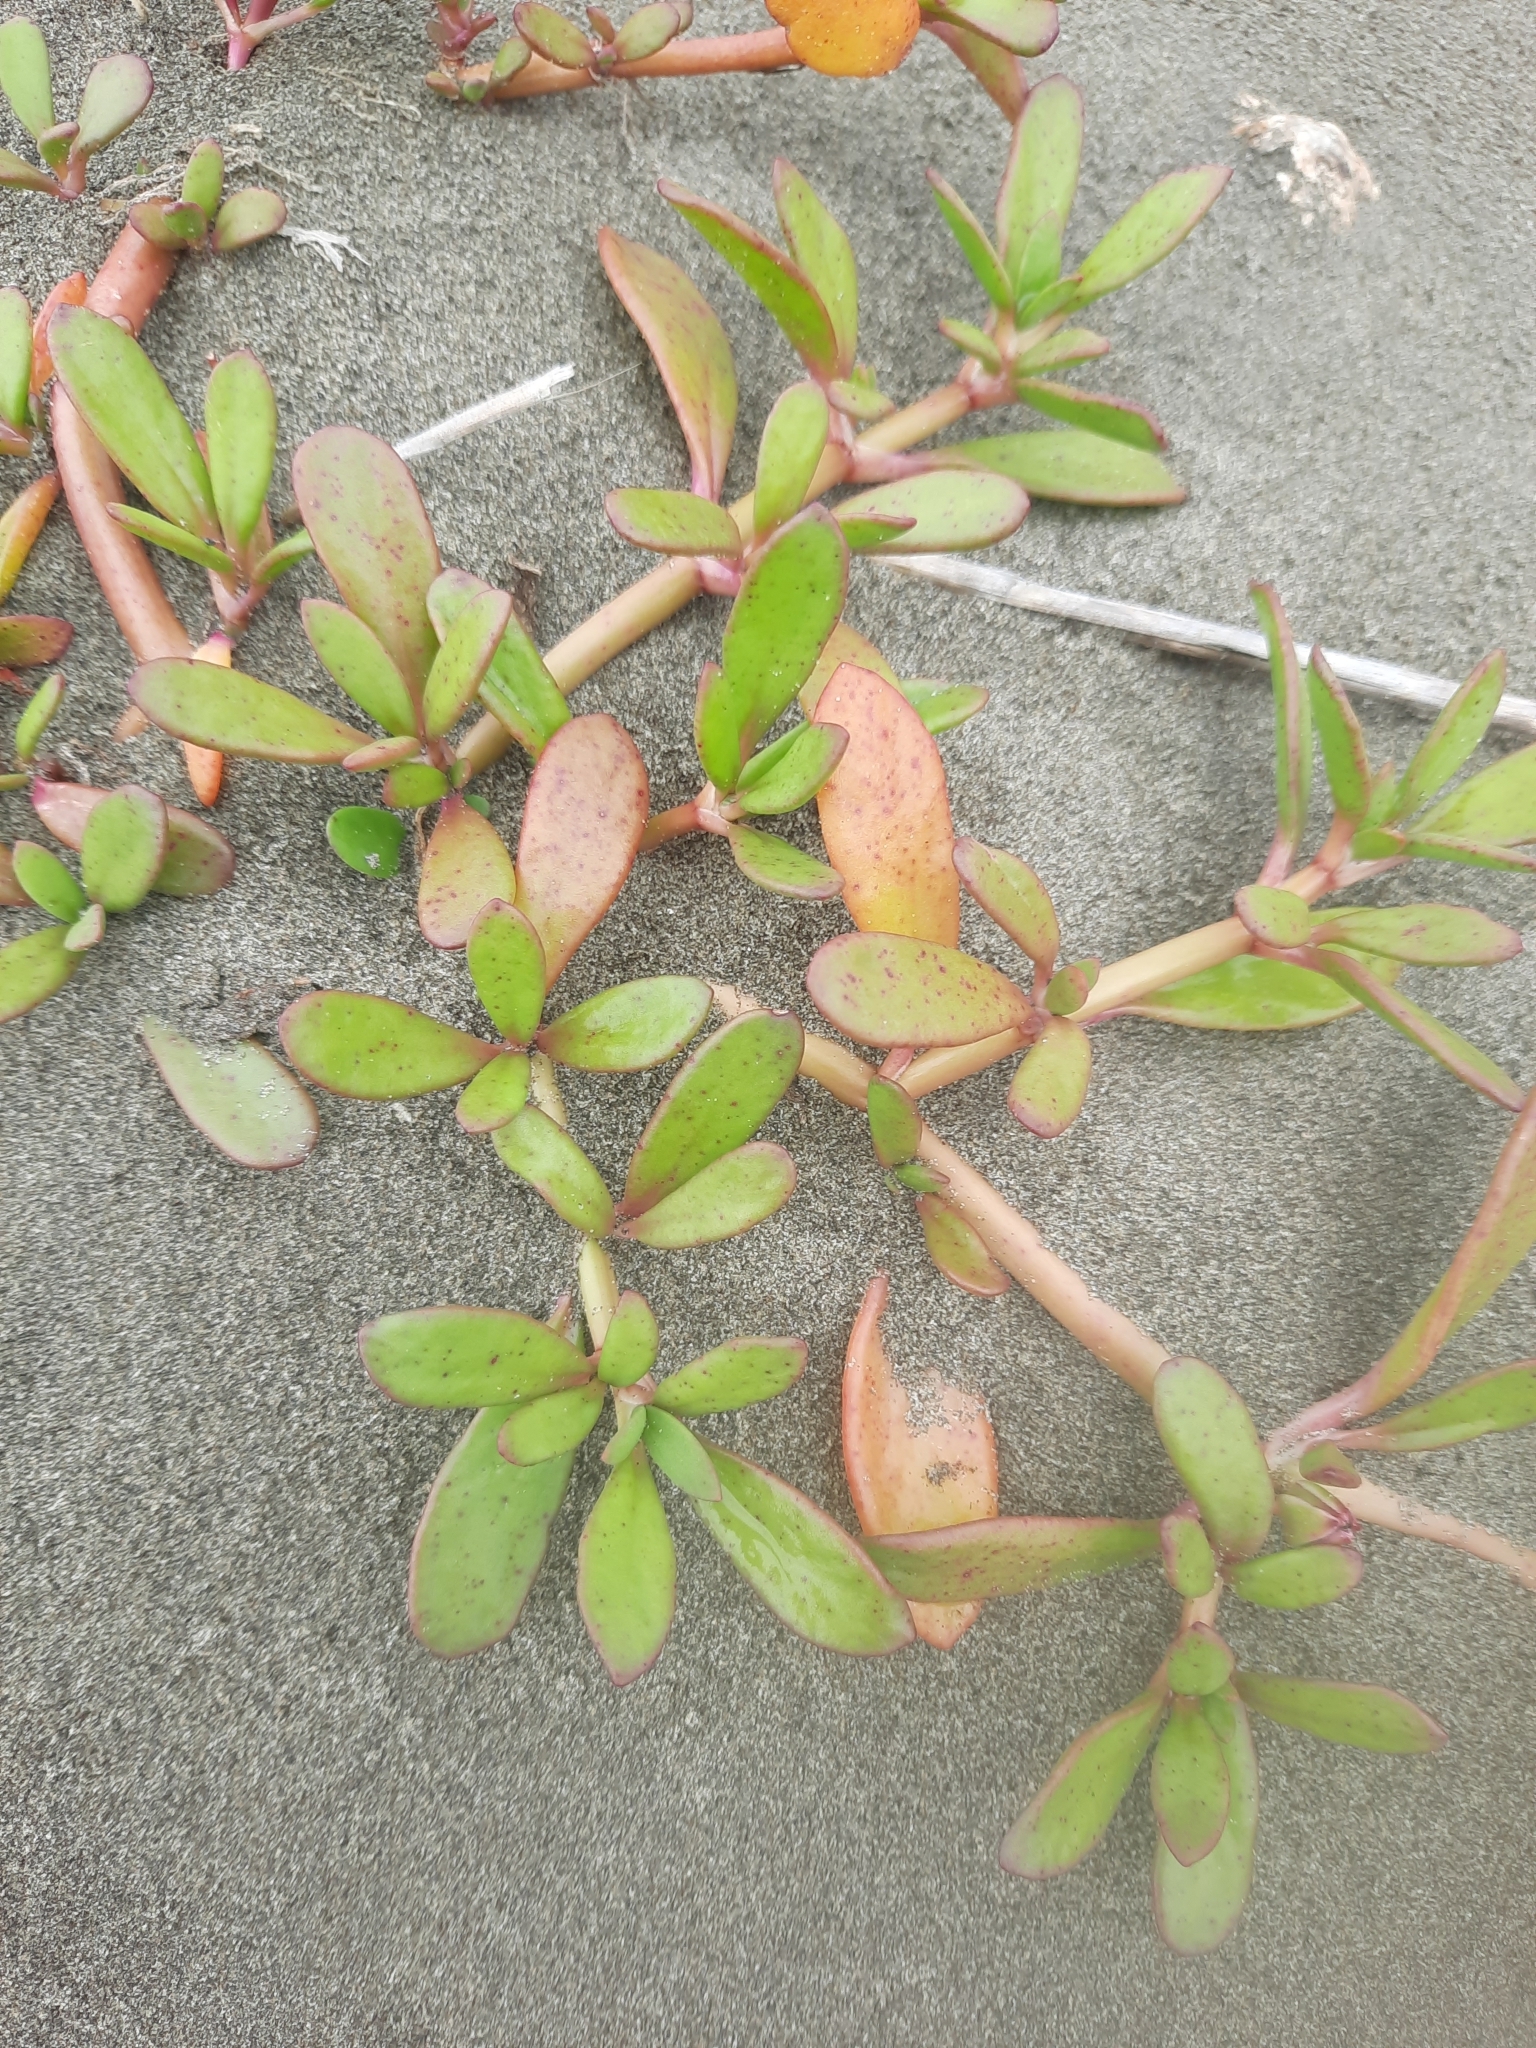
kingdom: Plantae
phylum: Tracheophyta
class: Magnoliopsida
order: Caryophyllales
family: Aizoaceae
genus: Sesuvium
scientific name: Sesuvium portulacastrum
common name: Sea-purslane
